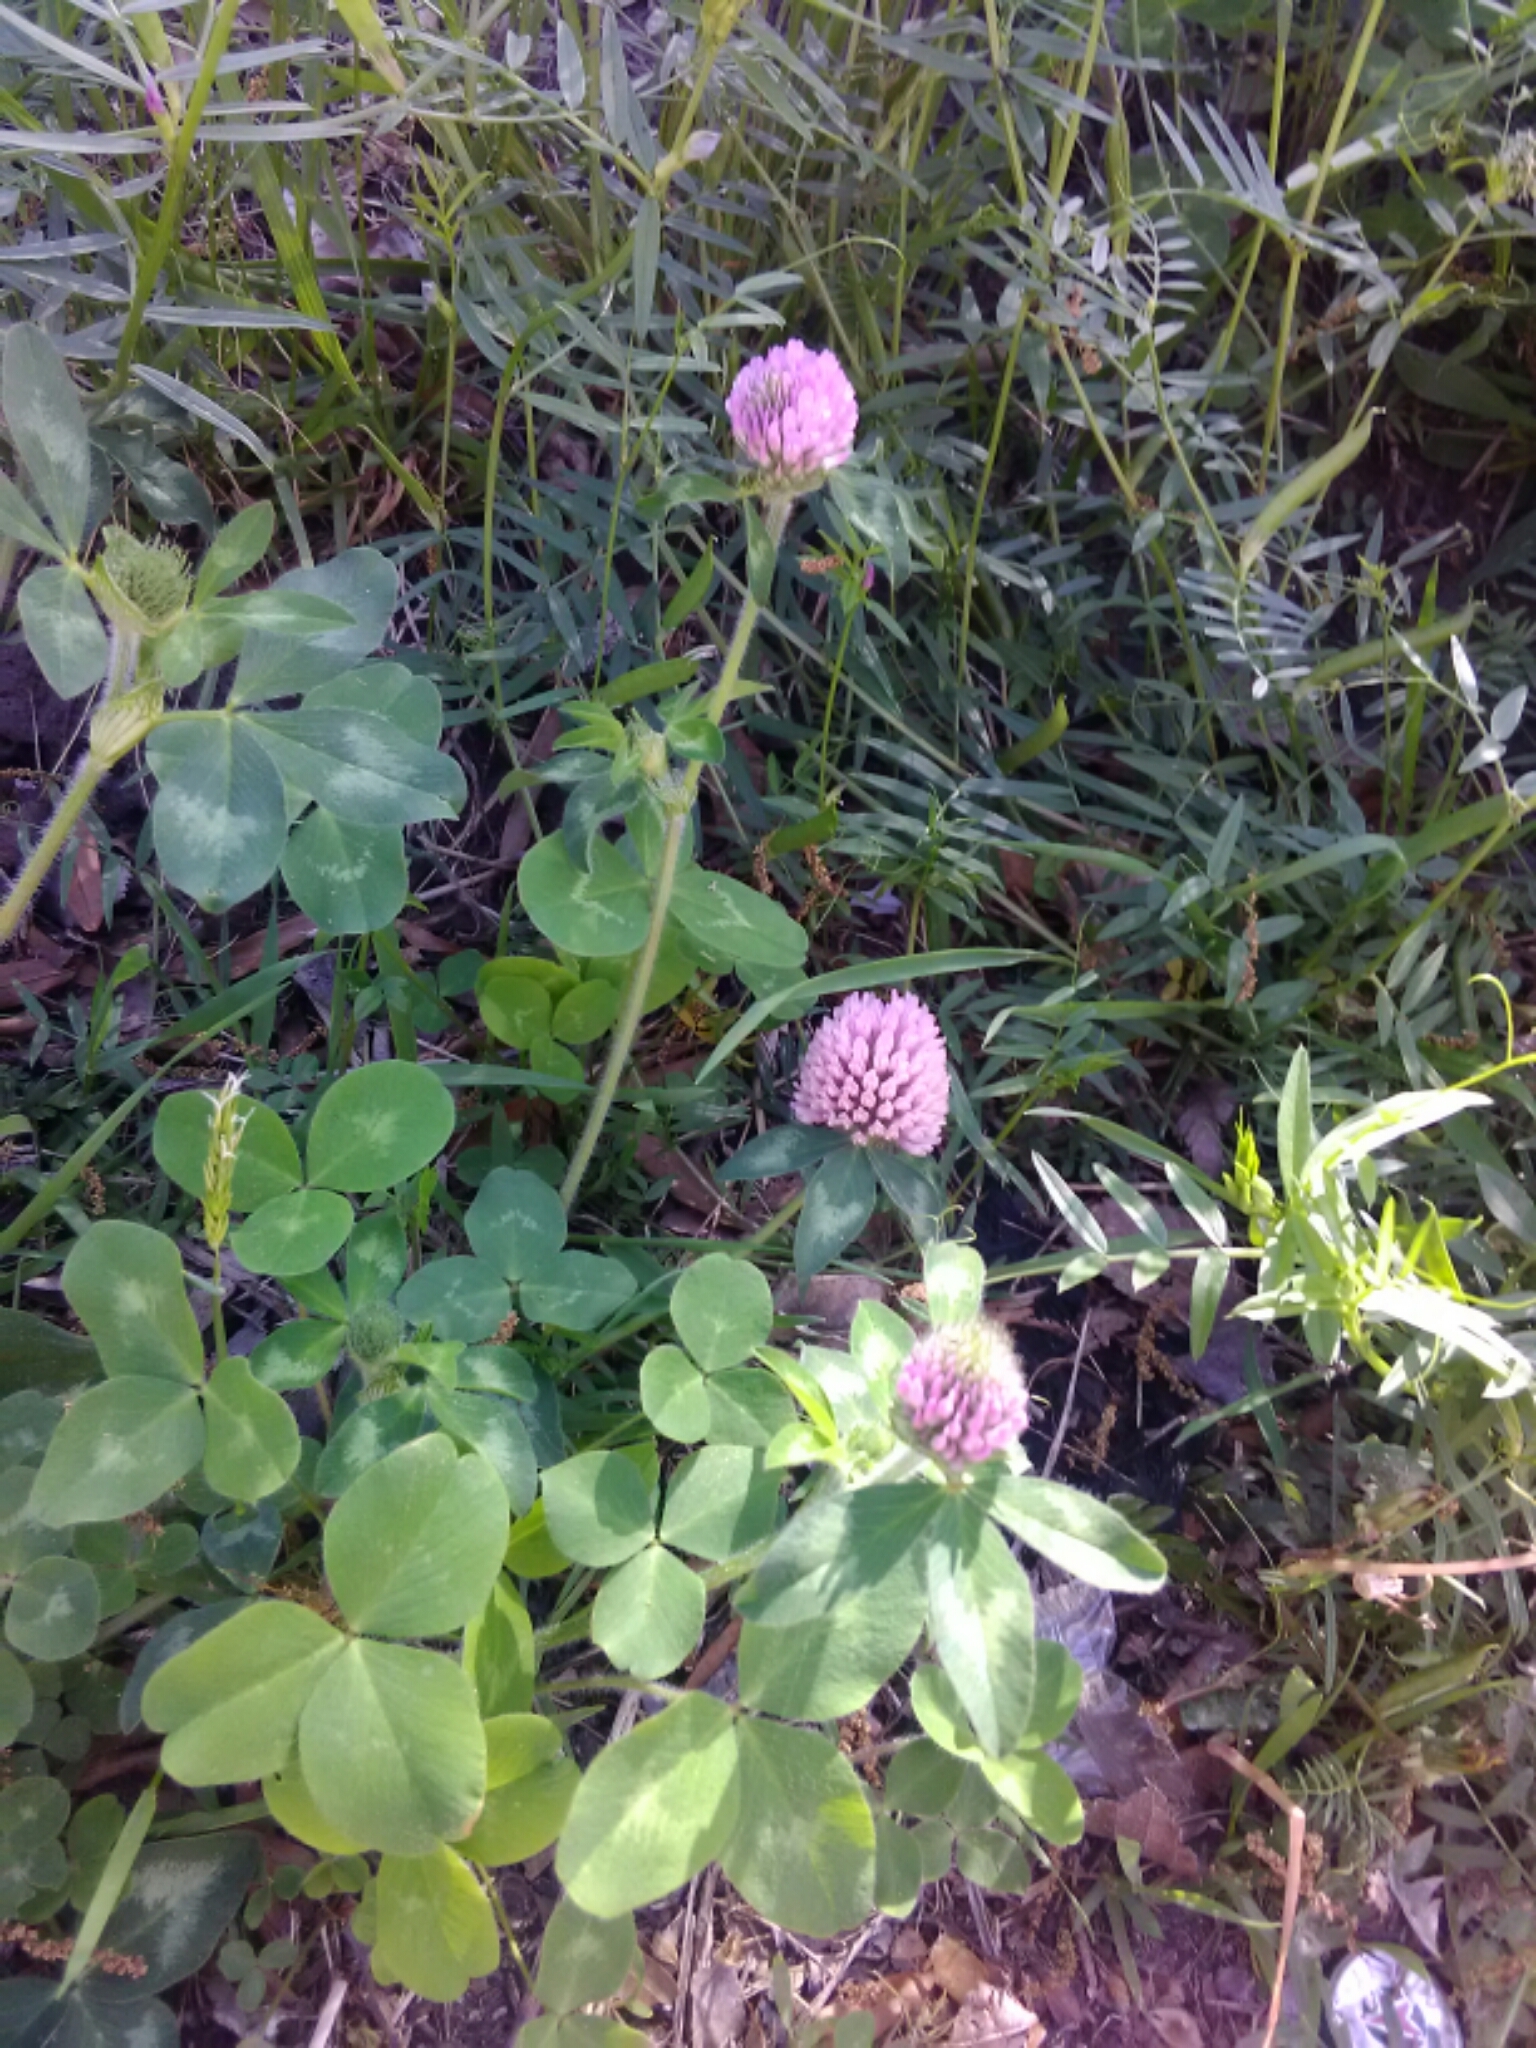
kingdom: Plantae
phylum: Tracheophyta
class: Magnoliopsida
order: Fabales
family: Fabaceae
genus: Trifolium
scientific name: Trifolium pratense
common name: Red clover
